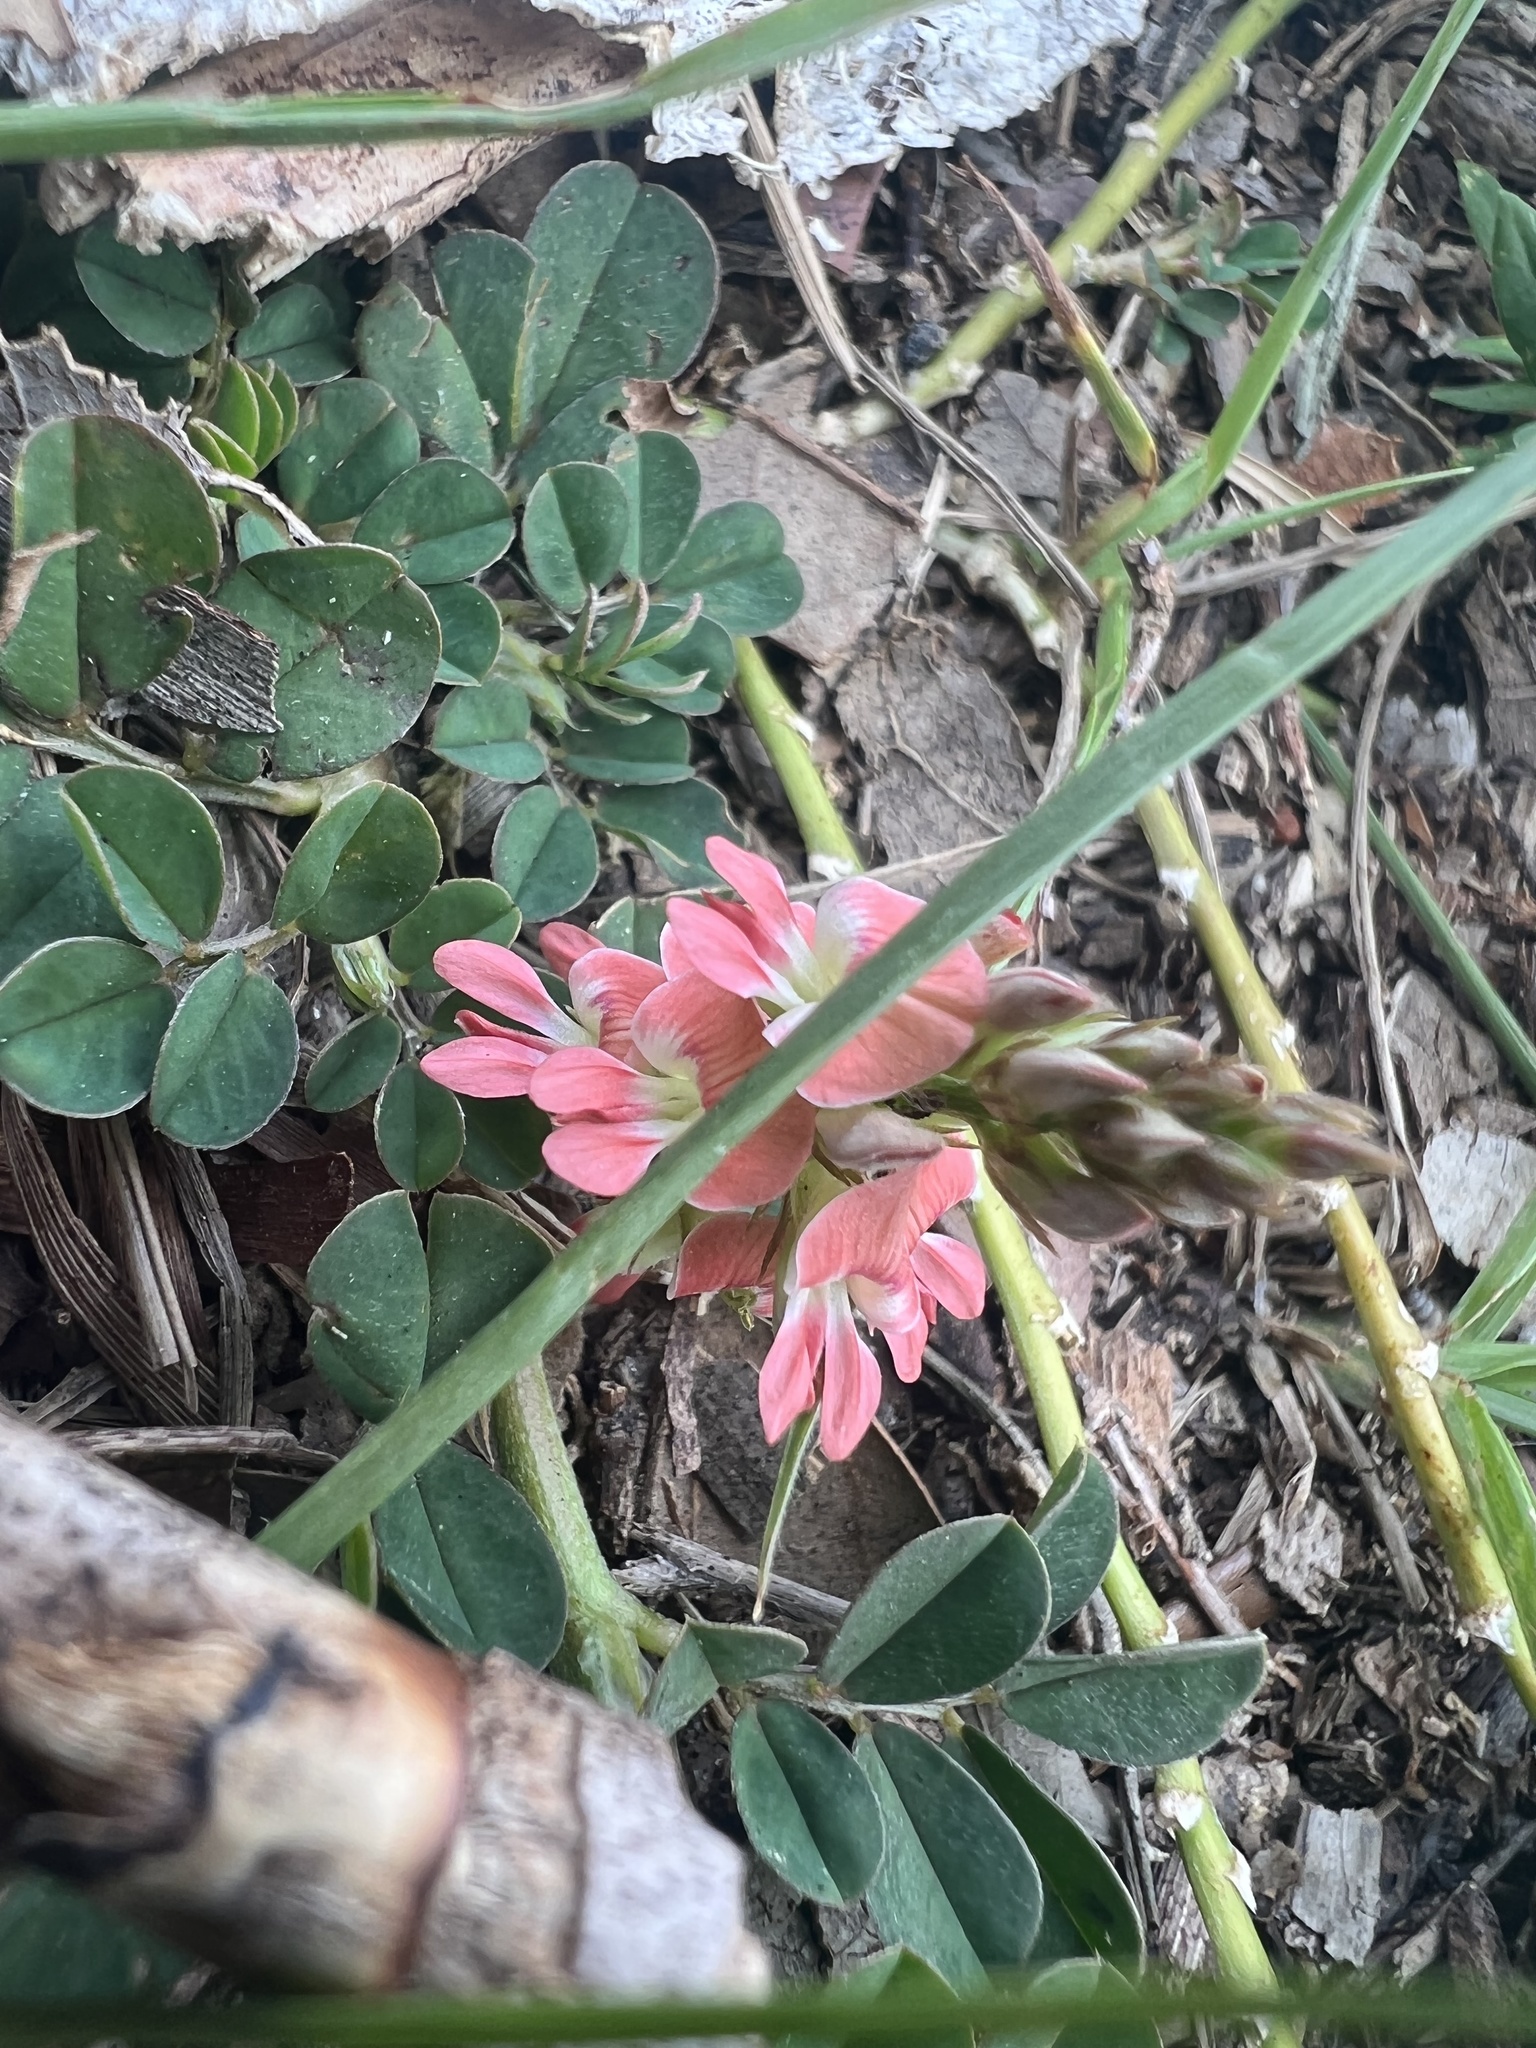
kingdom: Plantae
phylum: Tracheophyta
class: Magnoliopsida
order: Fabales
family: Fabaceae
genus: Indigofera
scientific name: Indigofera spicata
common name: Creeping indigo
